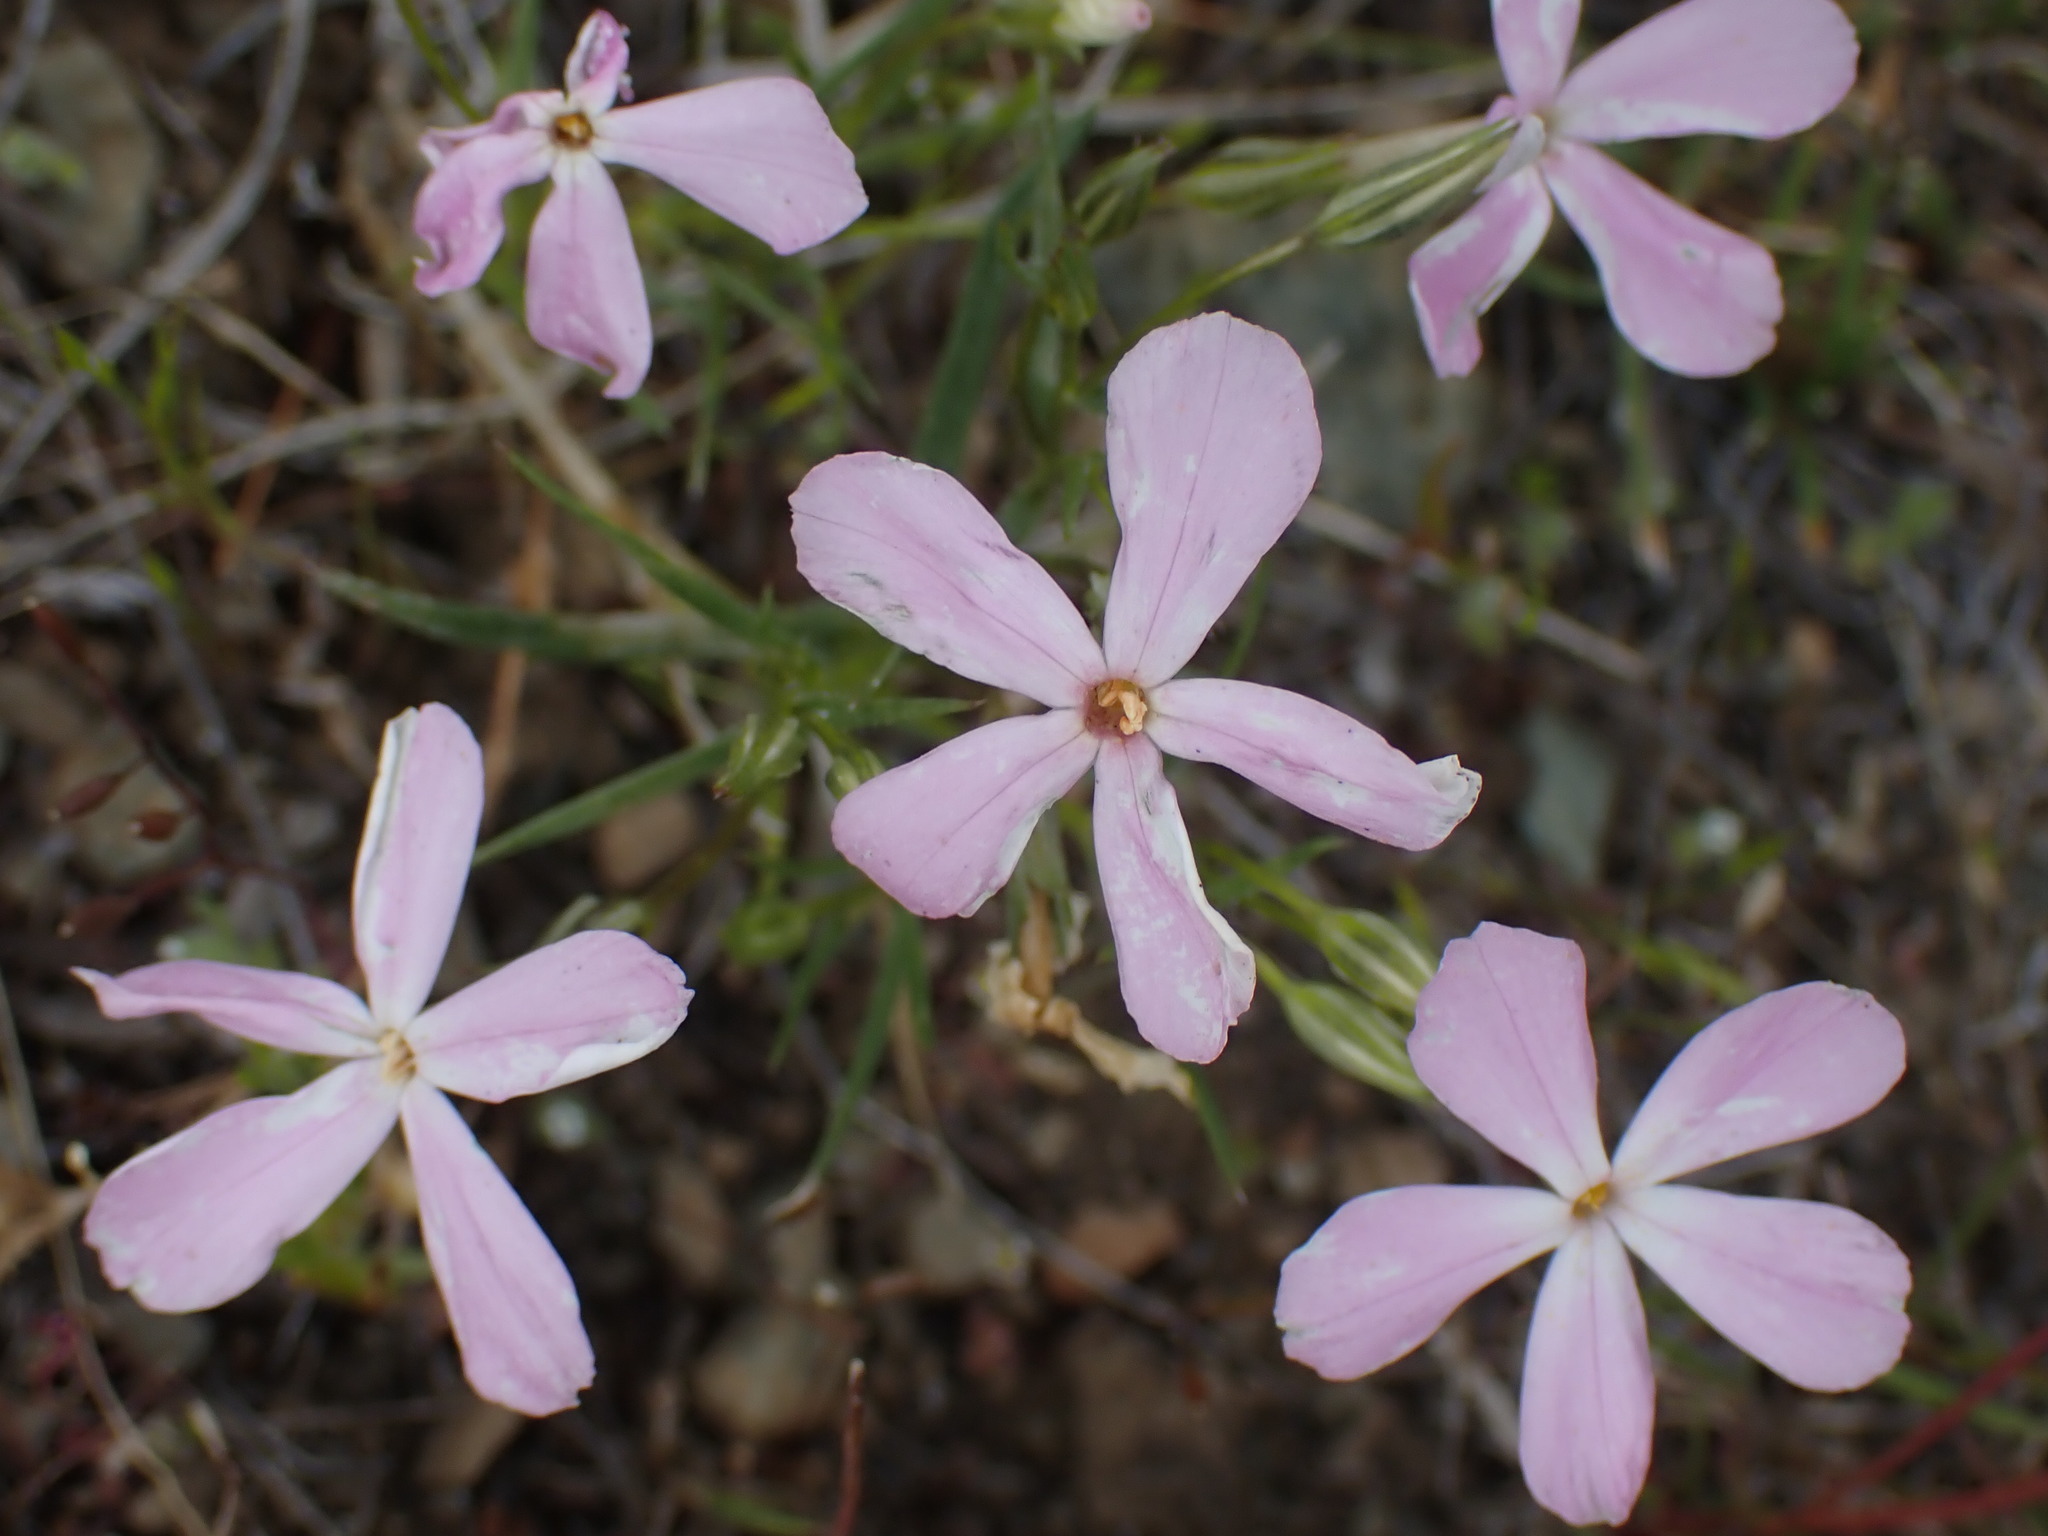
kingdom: Plantae
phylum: Tracheophyta
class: Magnoliopsida
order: Ericales
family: Polemoniaceae
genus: Phlox
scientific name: Phlox longifolia
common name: Longleaf phlox
